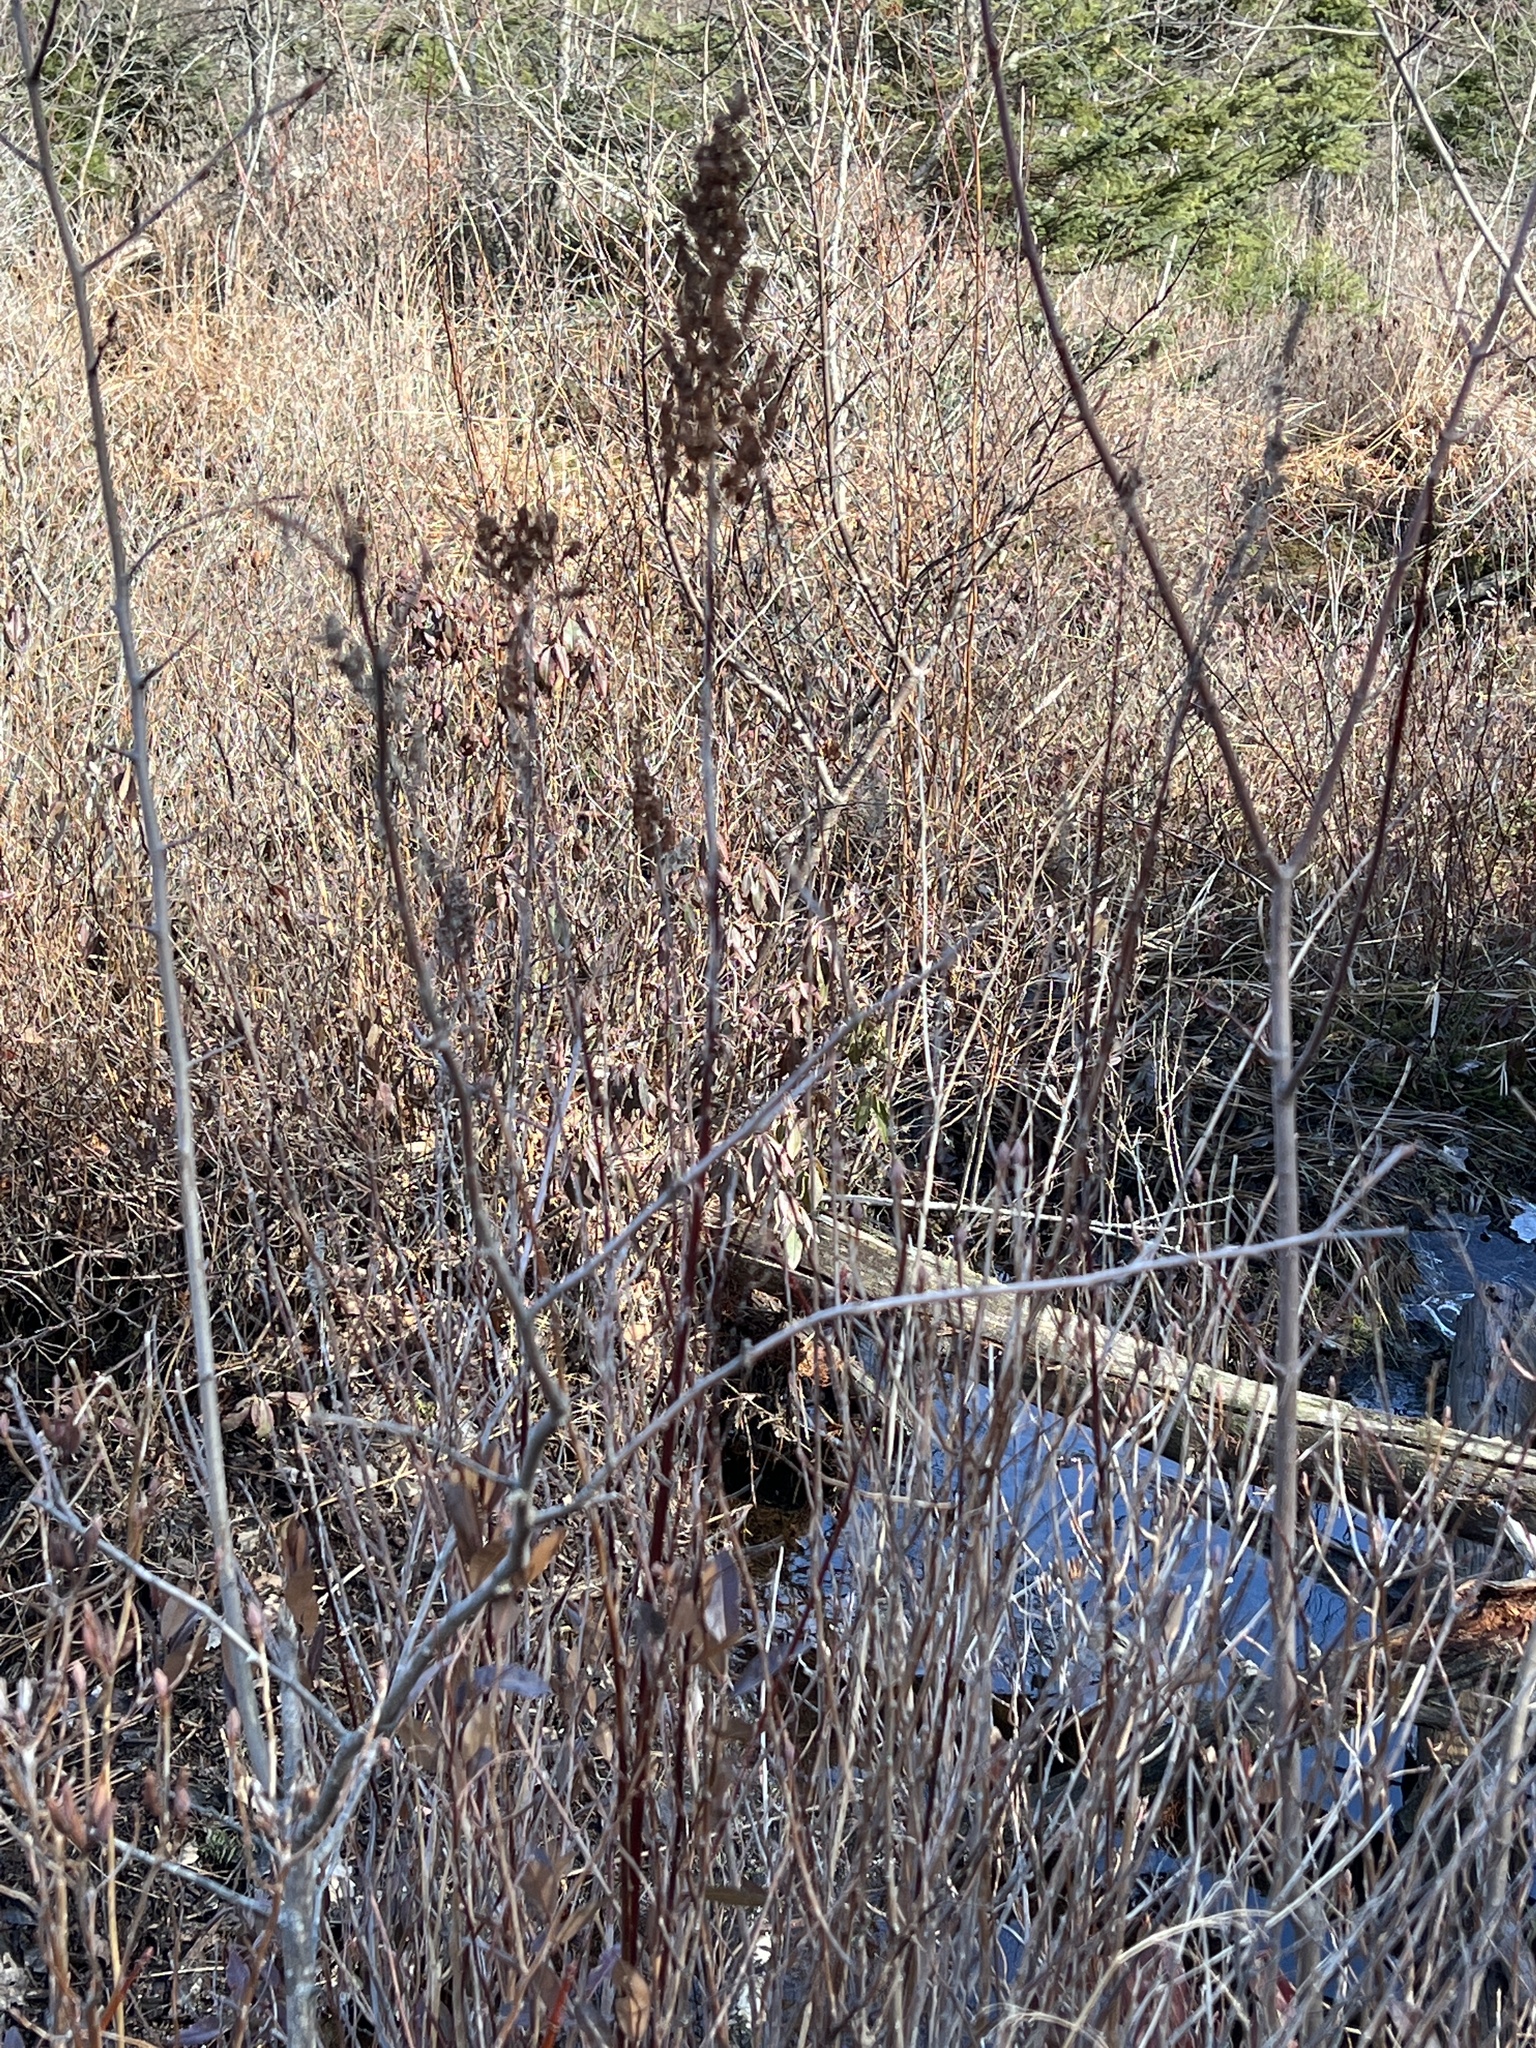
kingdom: Plantae
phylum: Tracheophyta
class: Magnoliopsida
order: Rosales
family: Rosaceae
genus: Spiraea
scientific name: Spiraea tomentosa
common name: Hardhack
